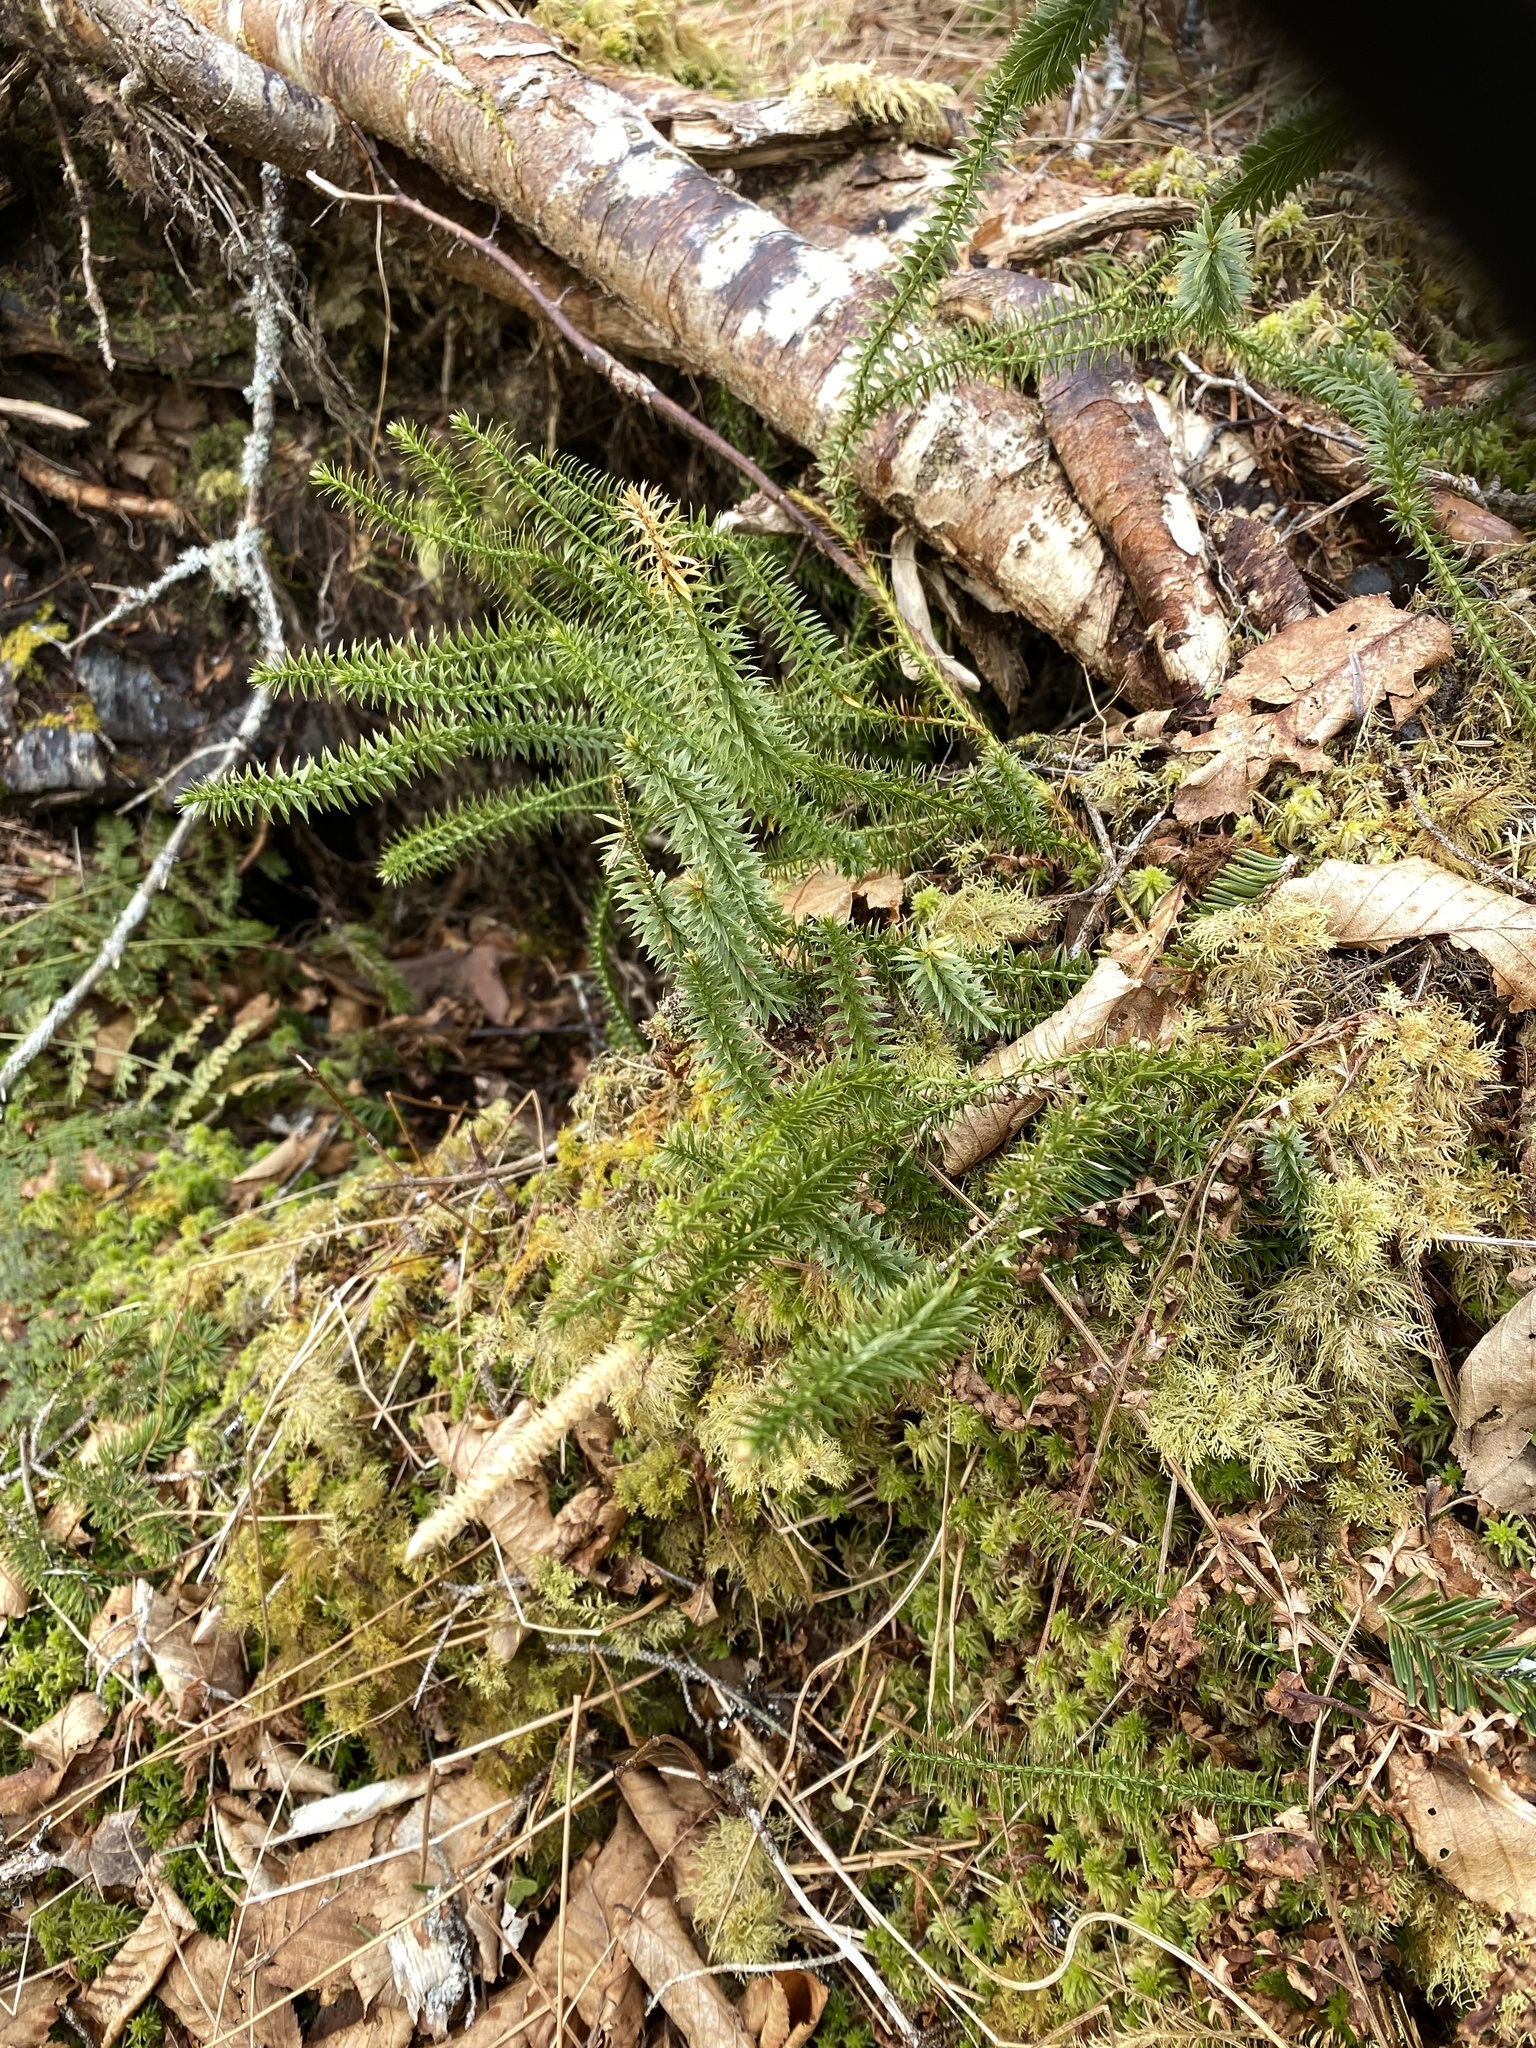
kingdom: Plantae
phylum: Tracheophyta
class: Lycopodiopsida
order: Lycopodiales
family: Lycopodiaceae
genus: Spinulum
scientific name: Spinulum annotinum
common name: Interrupted club-moss
